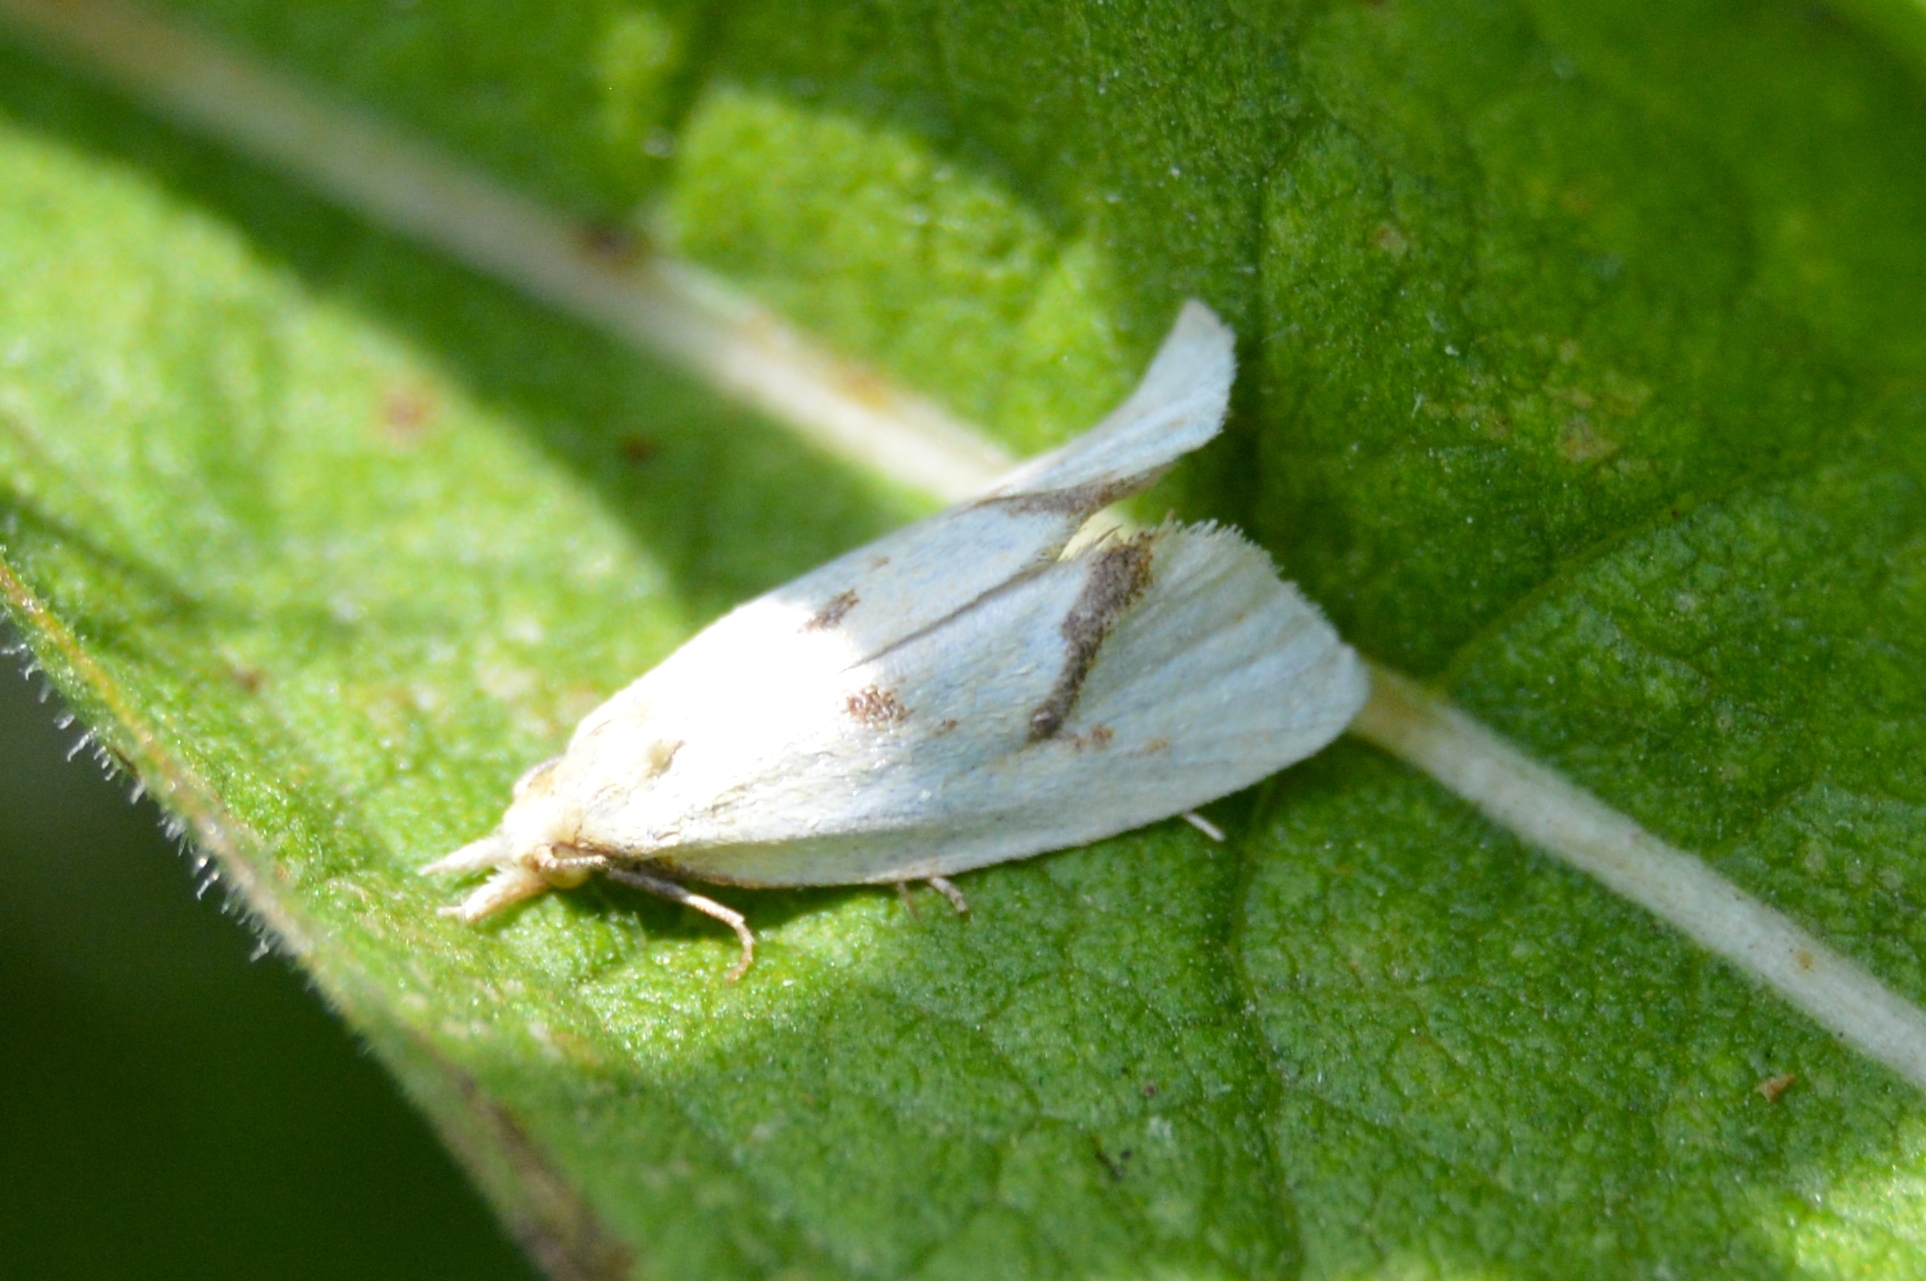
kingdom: Animalia
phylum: Arthropoda
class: Insecta
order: Lepidoptera
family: Tortricidae
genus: Agapeta
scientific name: Agapeta hamana
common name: Common yellow conch
